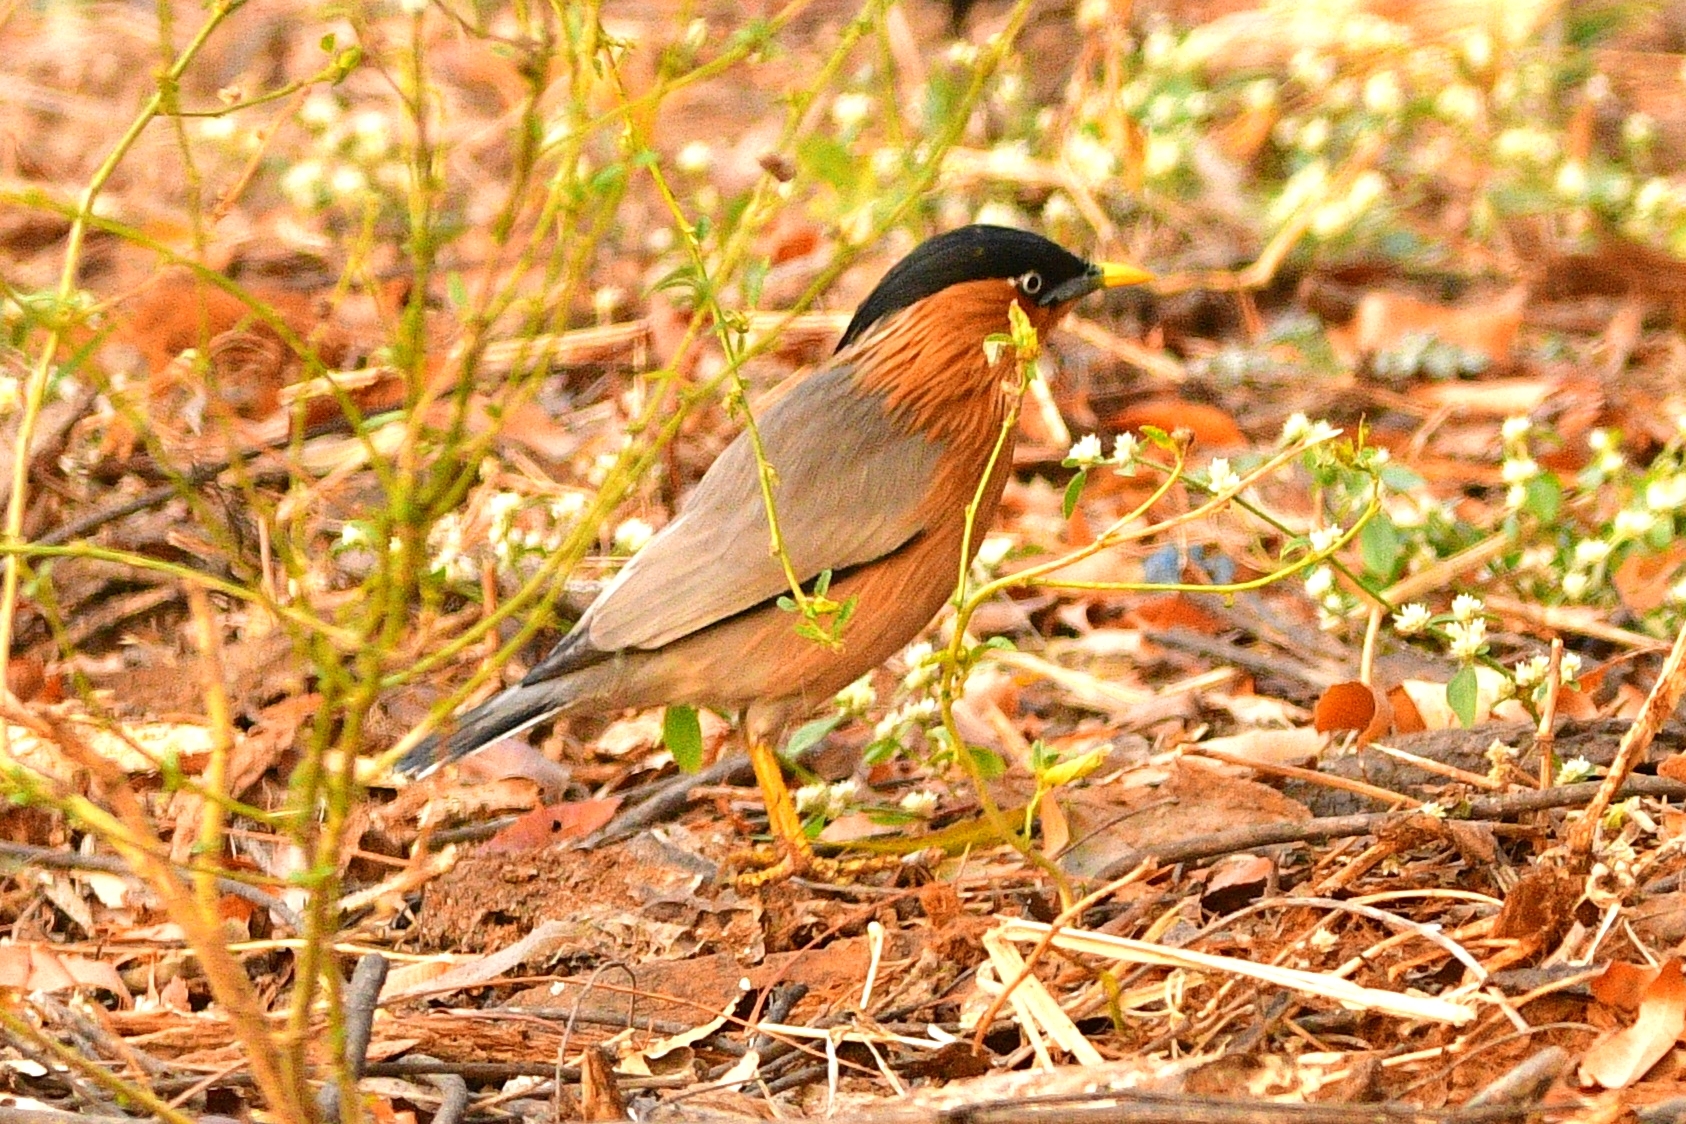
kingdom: Animalia
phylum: Chordata
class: Aves
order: Passeriformes
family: Sturnidae
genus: Sturnia
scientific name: Sturnia pagodarum
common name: Brahminy starling
